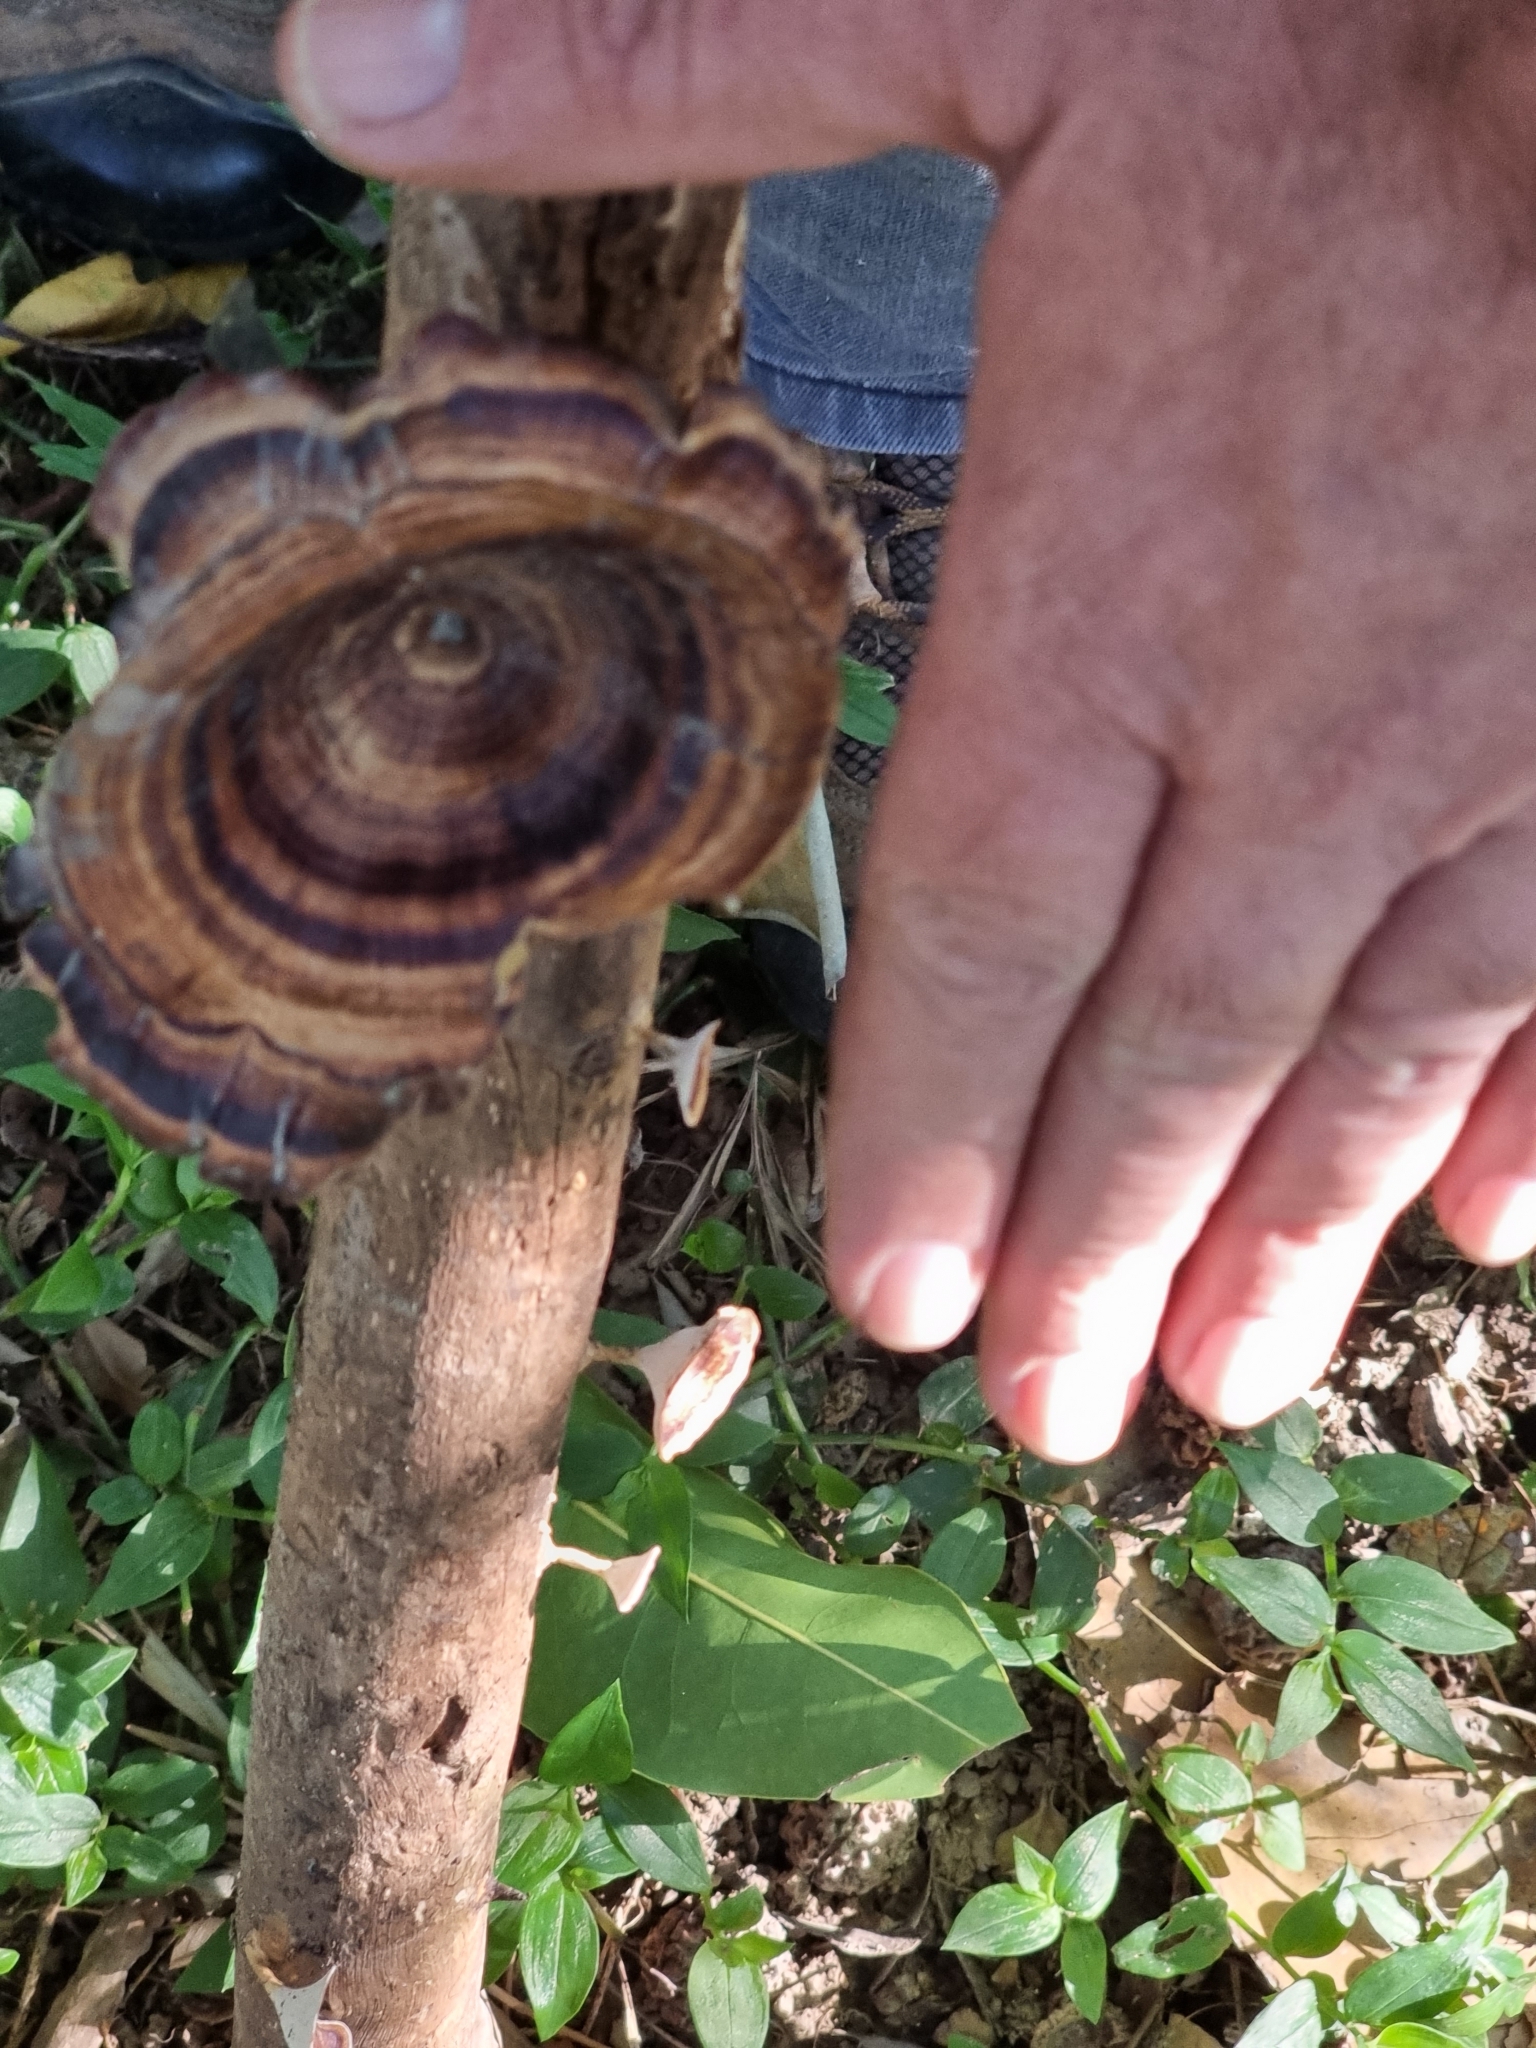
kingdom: Fungi
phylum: Basidiomycota
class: Agaricomycetes
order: Polyporales
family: Polyporaceae
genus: Microporus
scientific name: Microporus xanthopus
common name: Yellow-stemmed micropore
